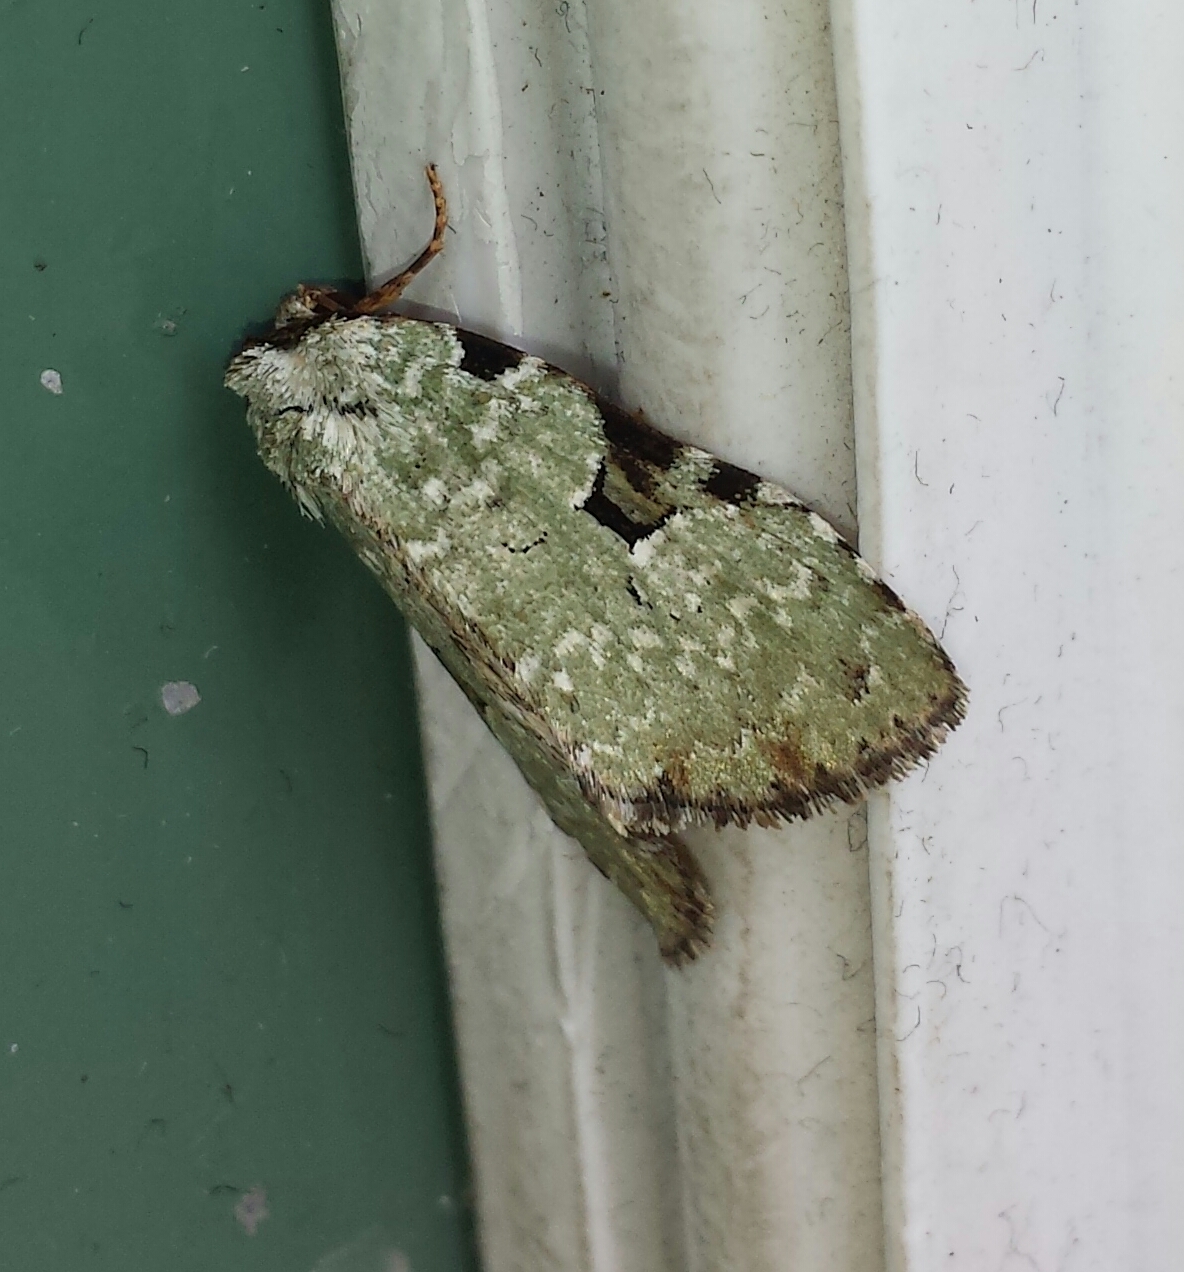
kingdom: Animalia
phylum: Arthropoda
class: Insecta
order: Lepidoptera
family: Noctuidae
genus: Leuconycta
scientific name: Leuconycta diphteroides
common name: Green leuconycta moth
